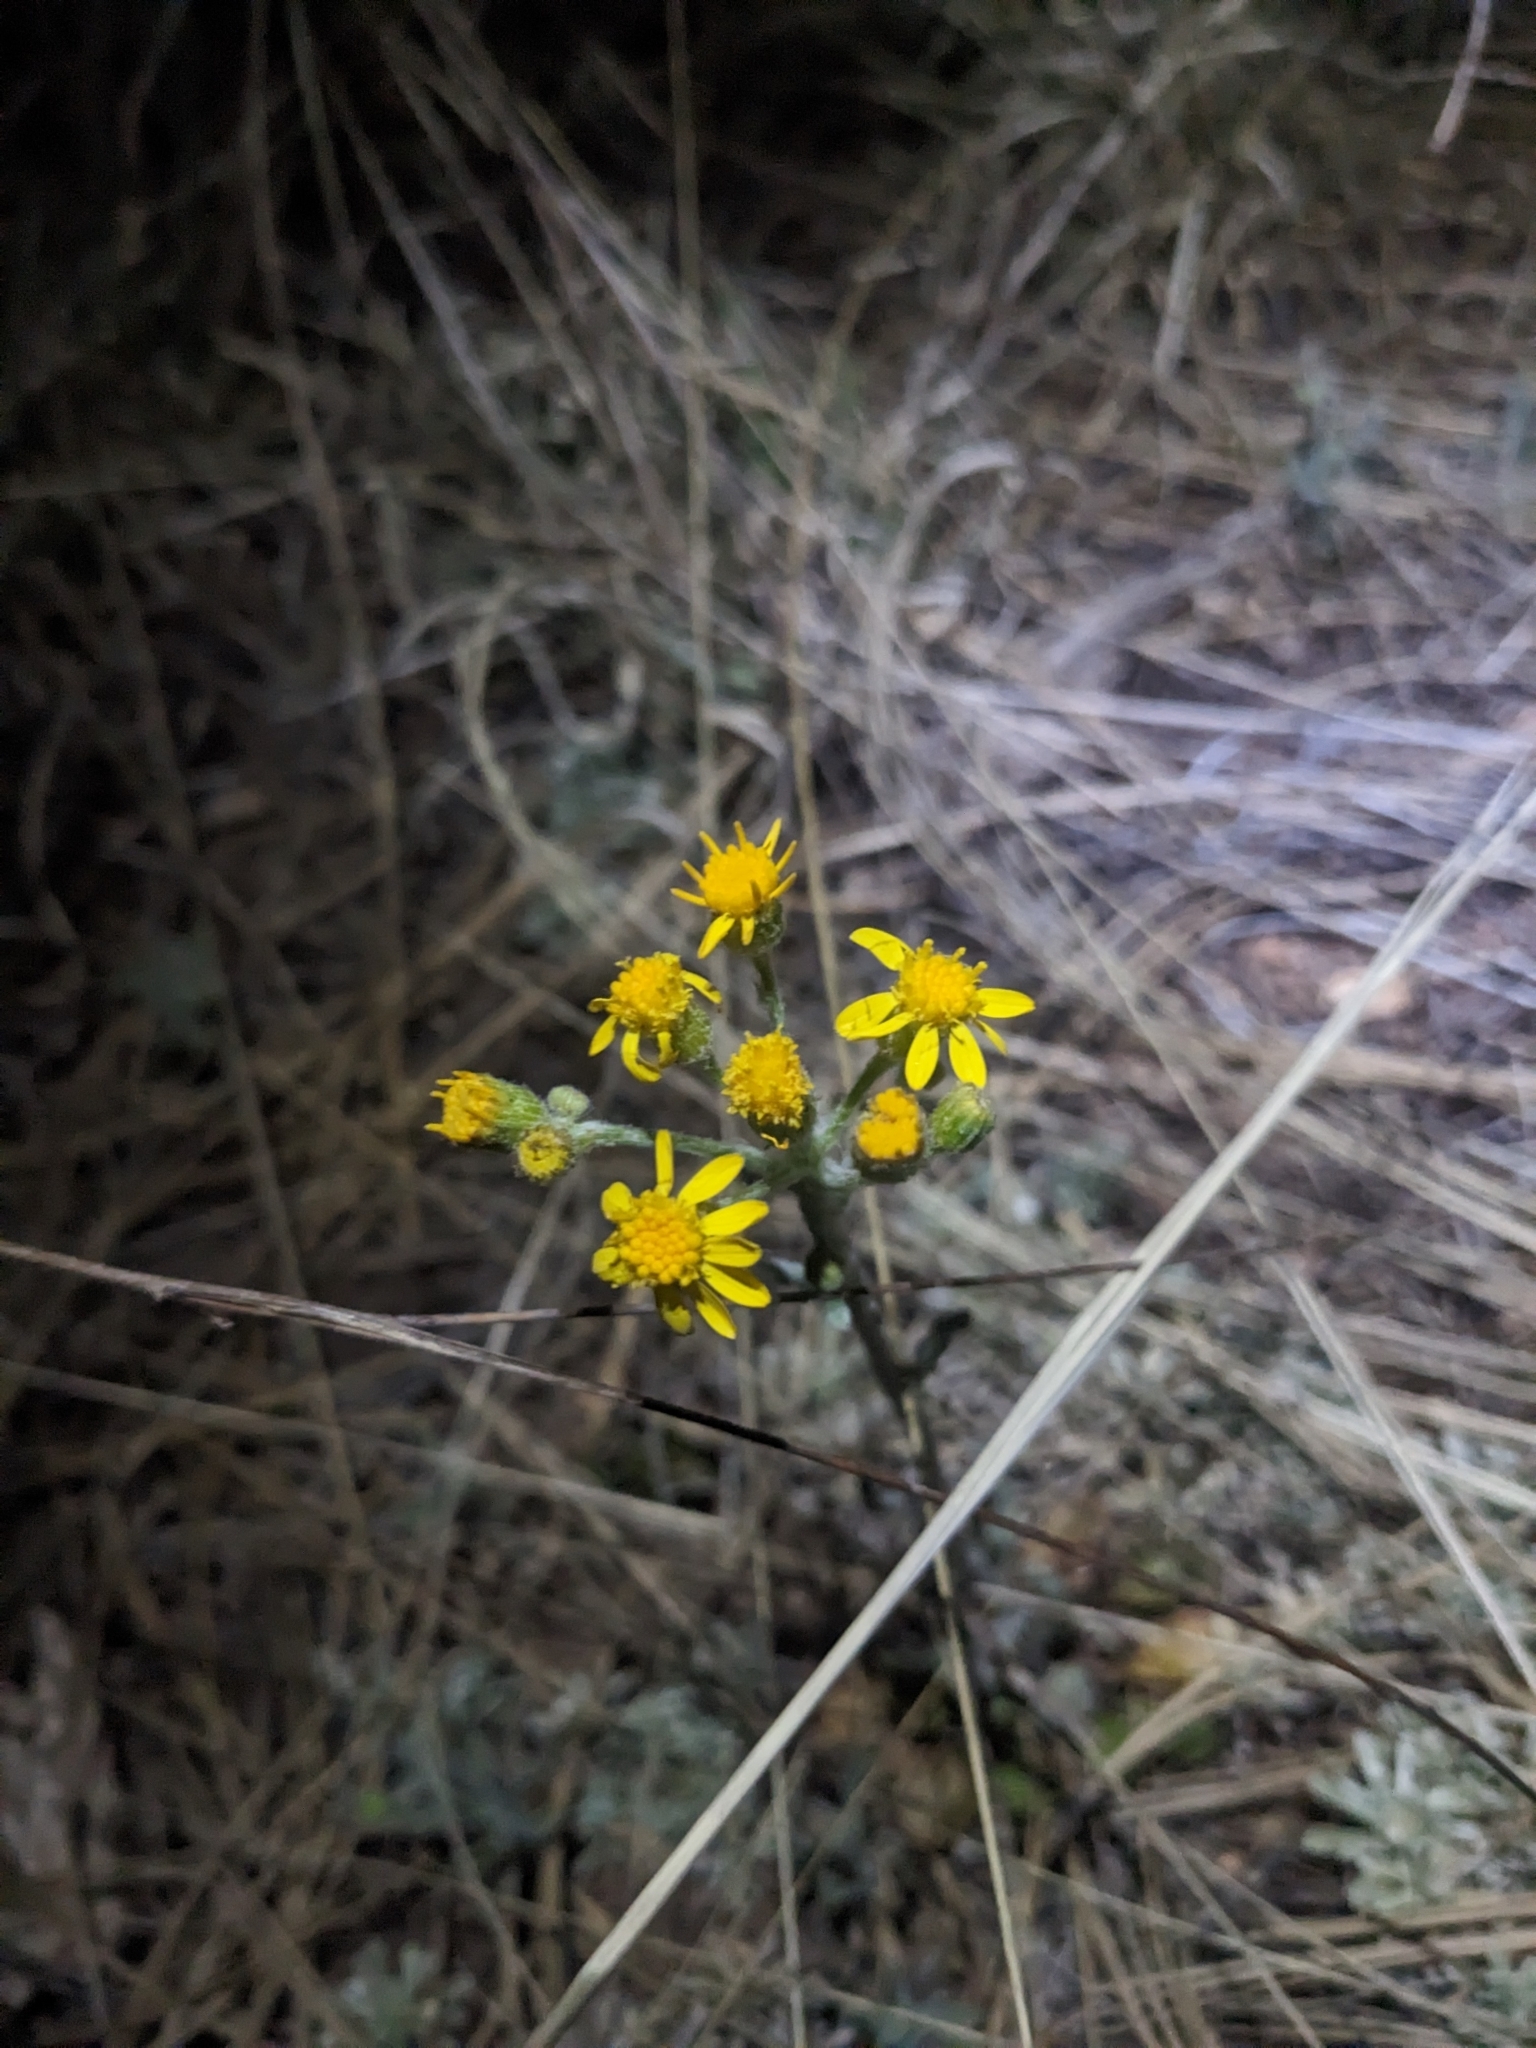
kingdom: Plantae
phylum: Tracheophyta
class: Magnoliopsida
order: Asterales
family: Asteraceae
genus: Packera
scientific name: Packera neomexicana
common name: New mexico butterweed
